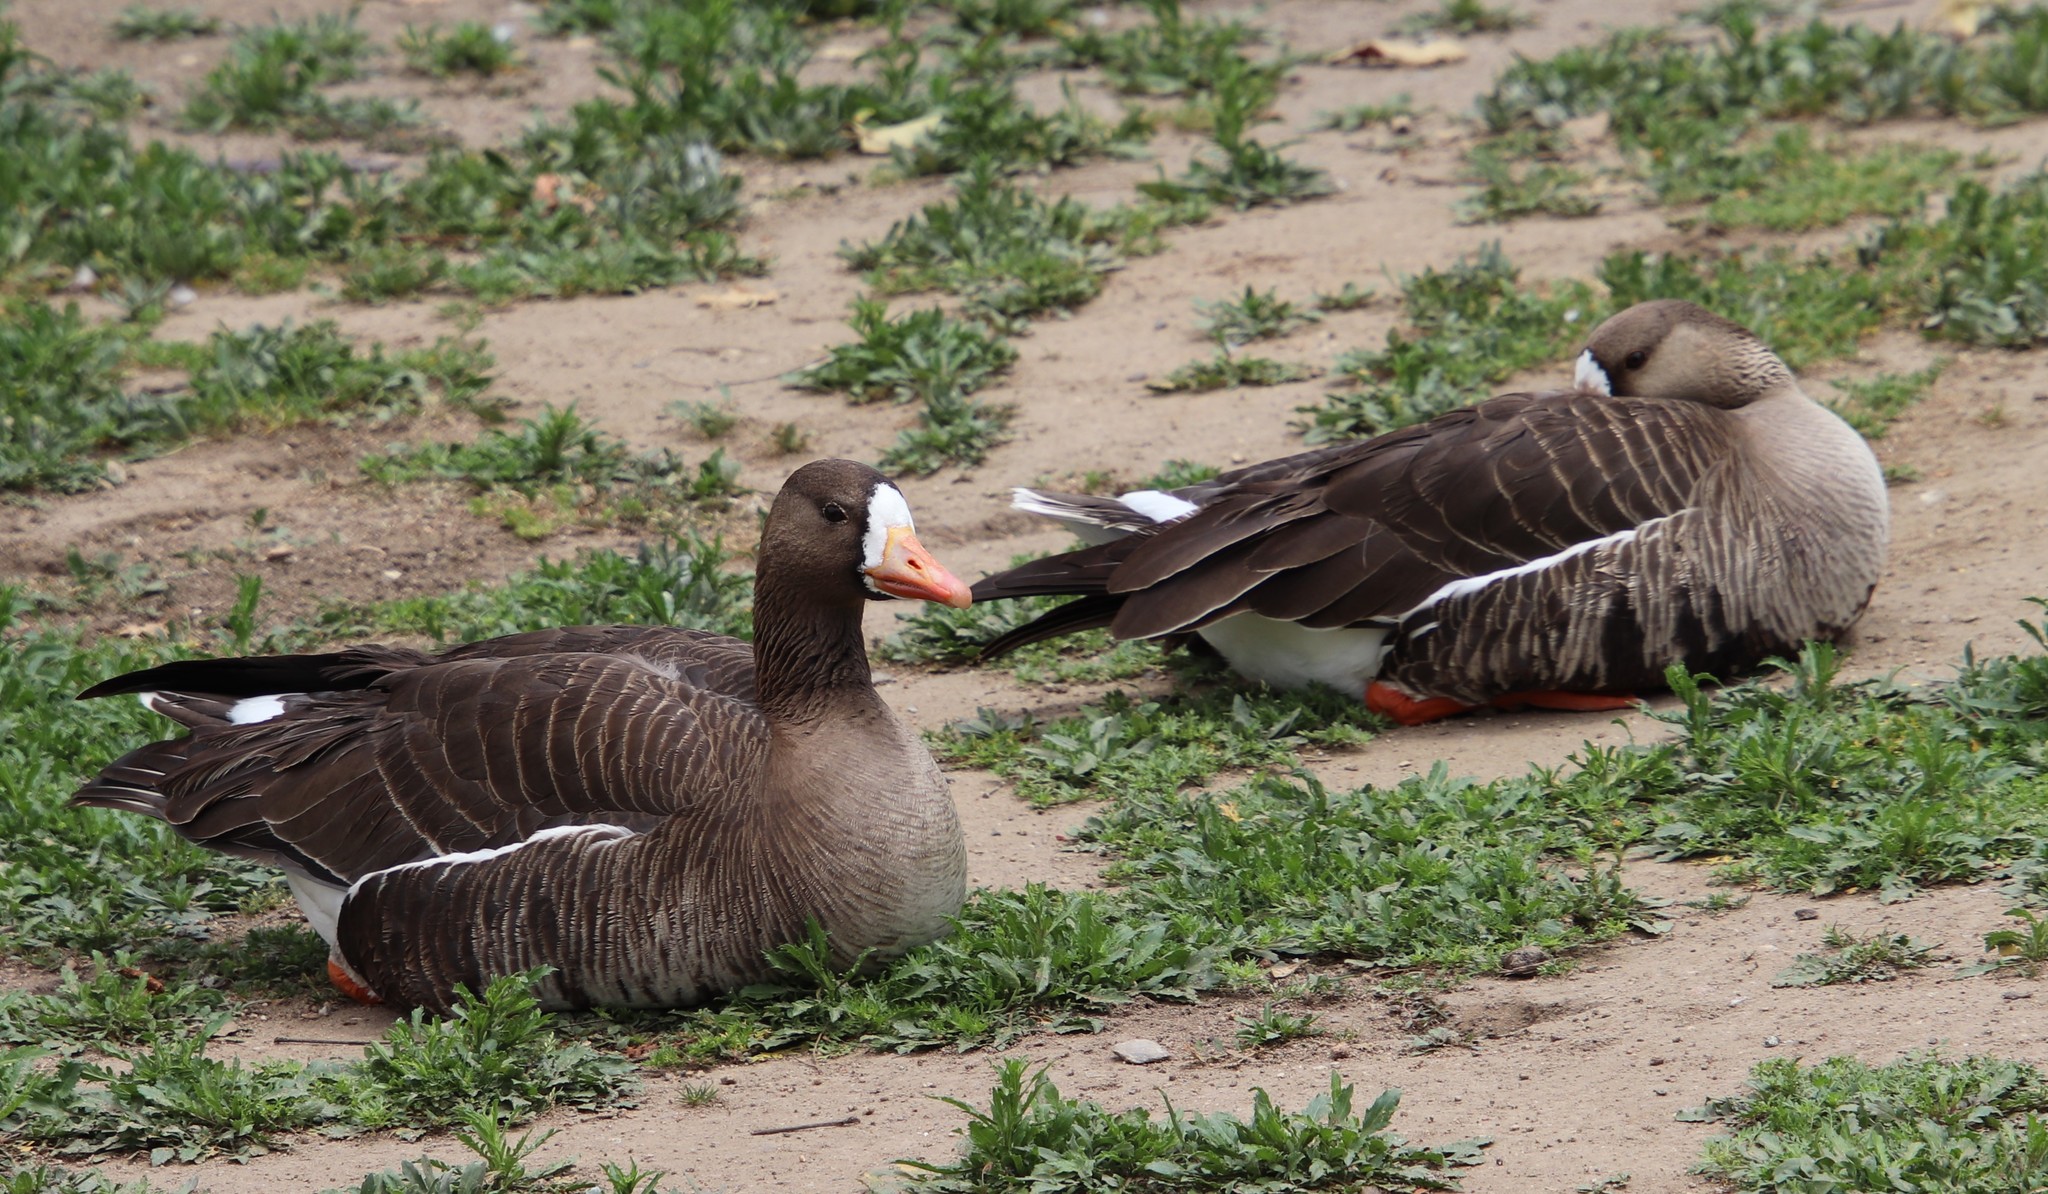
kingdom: Animalia
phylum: Chordata
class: Aves
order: Anseriformes
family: Anatidae
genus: Anser
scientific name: Anser albifrons
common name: Greater white-fronted goose
